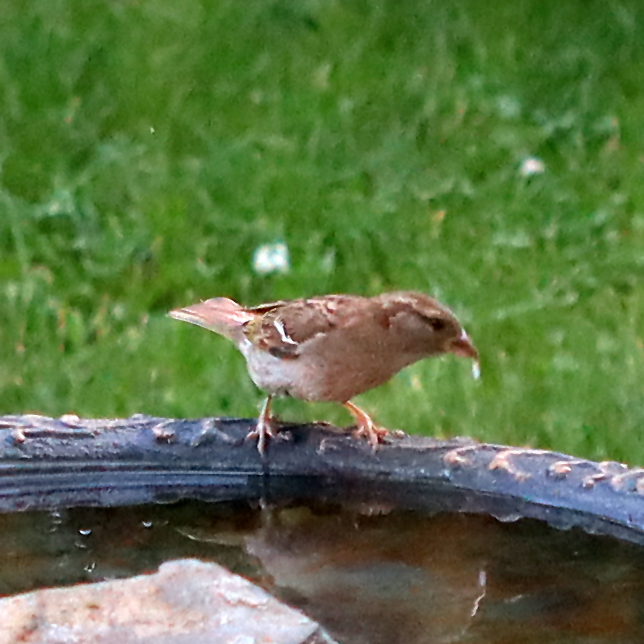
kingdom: Animalia
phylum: Chordata
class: Aves
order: Passeriformes
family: Passeridae
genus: Passer
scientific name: Passer domesticus
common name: House sparrow
